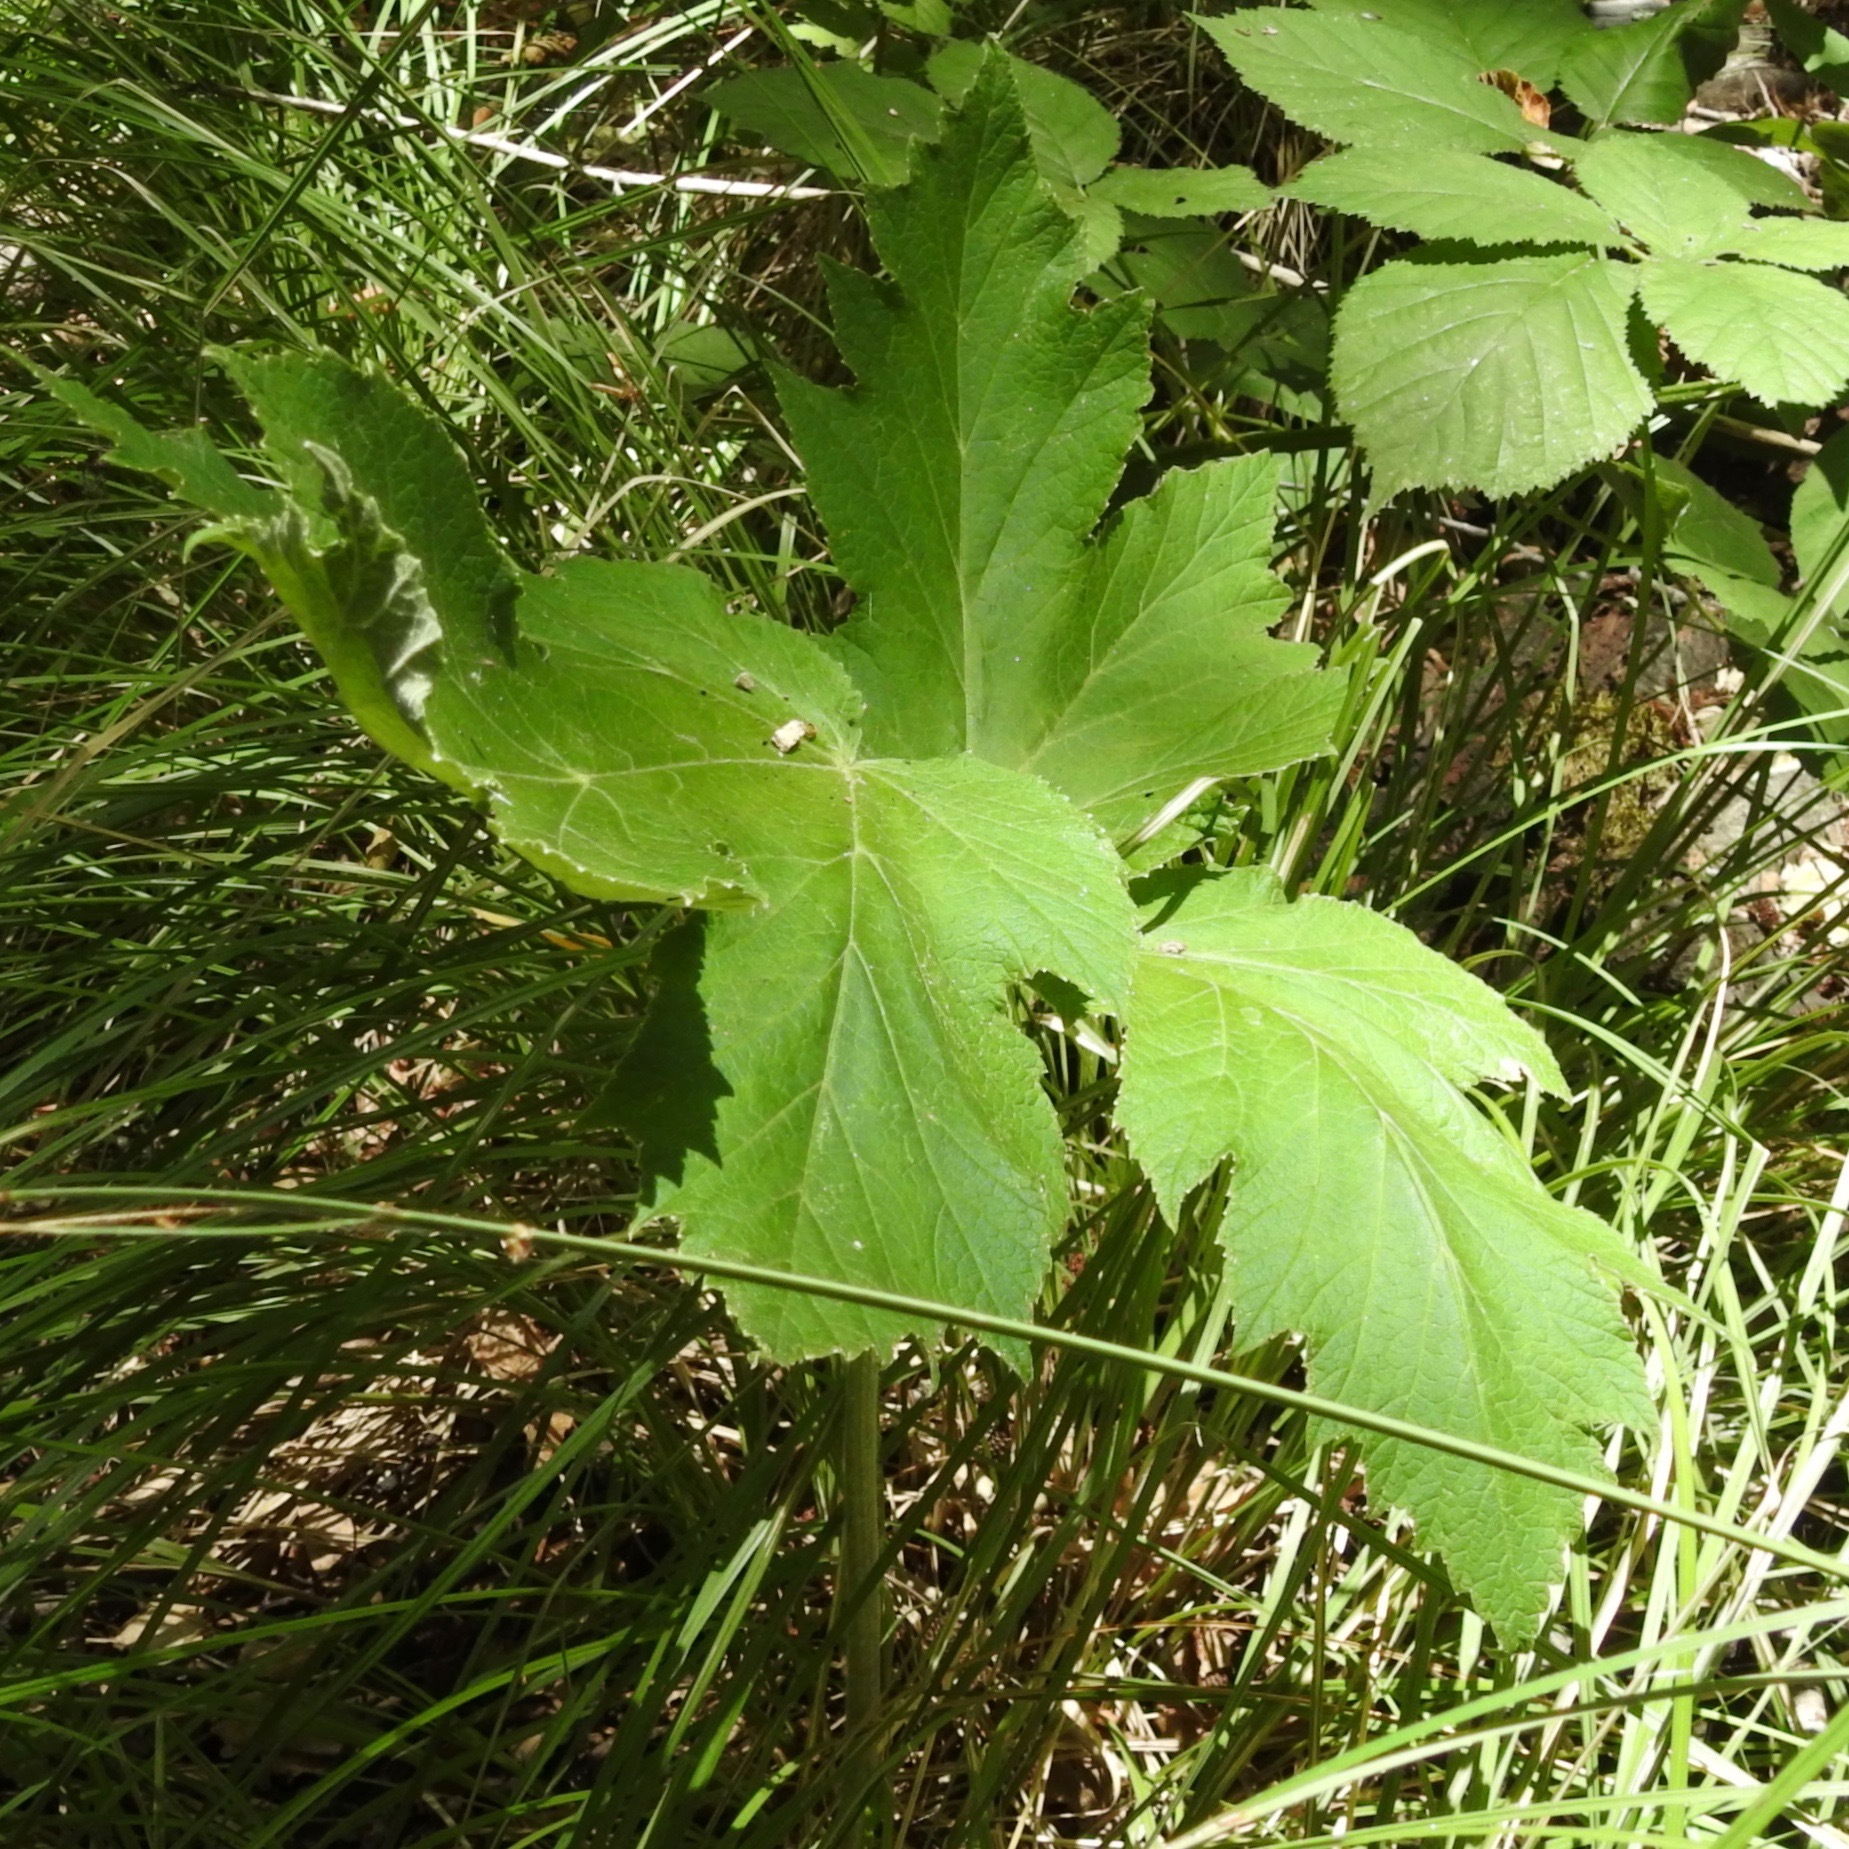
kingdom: Plantae
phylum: Tracheophyta
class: Magnoliopsida
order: Apiales
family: Apiaceae
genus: Heracleum
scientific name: Heracleum maximum
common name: American cow parsnip
